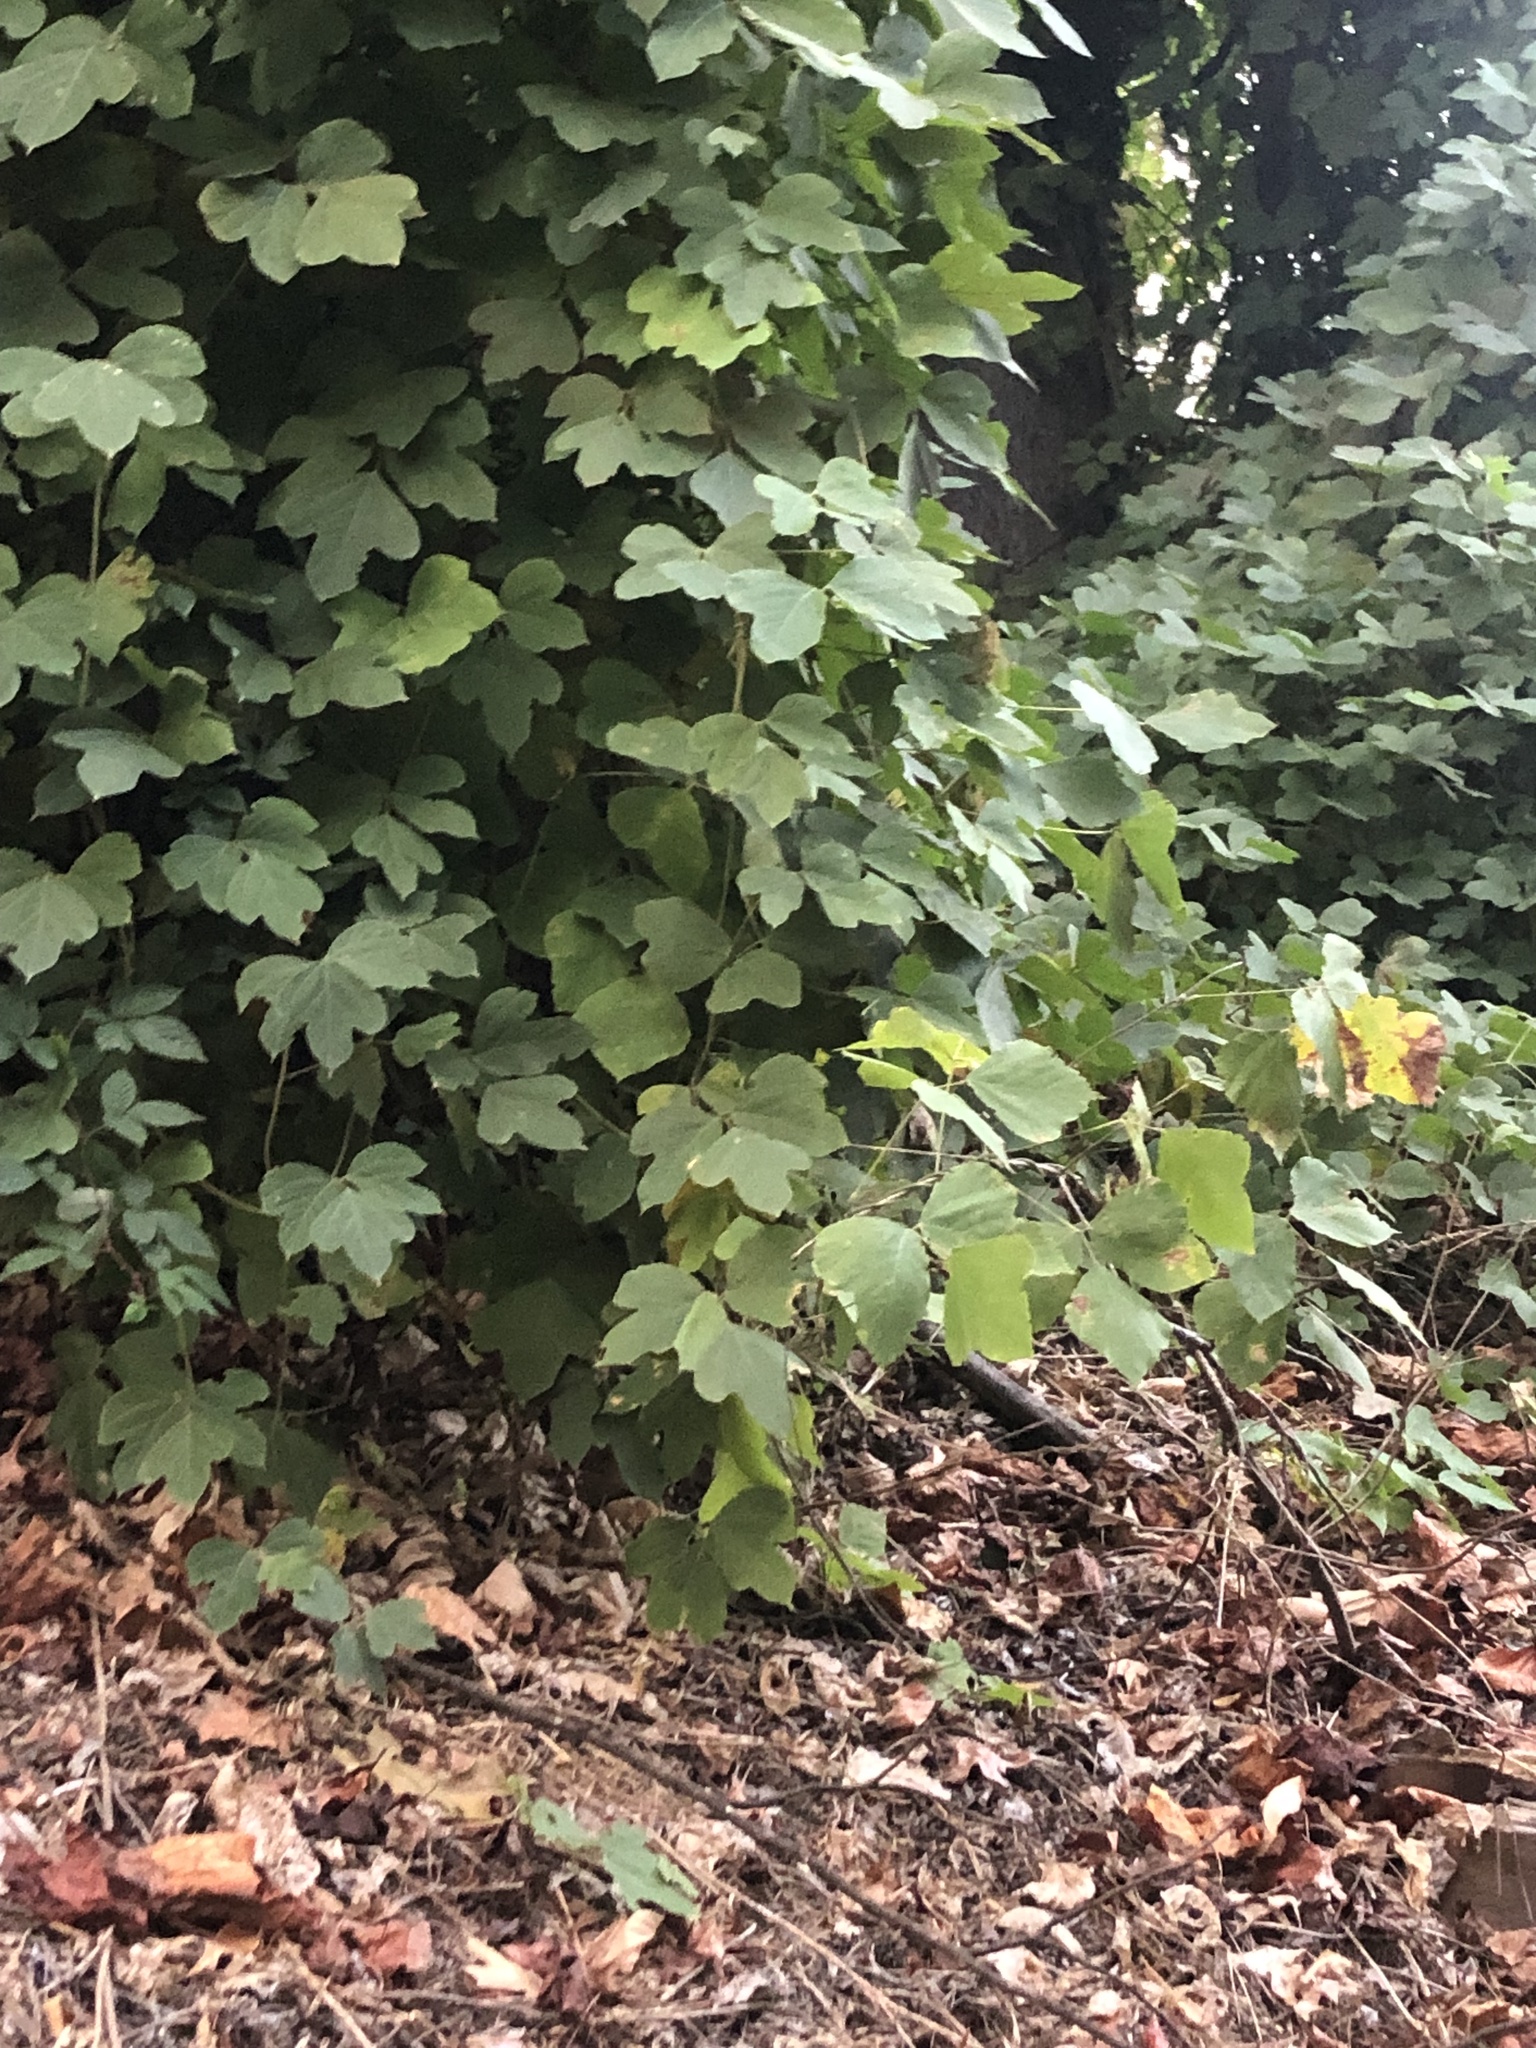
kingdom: Plantae
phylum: Tracheophyta
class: Magnoliopsida
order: Fabales
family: Fabaceae
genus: Pueraria
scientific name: Pueraria montana
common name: Kudzu
